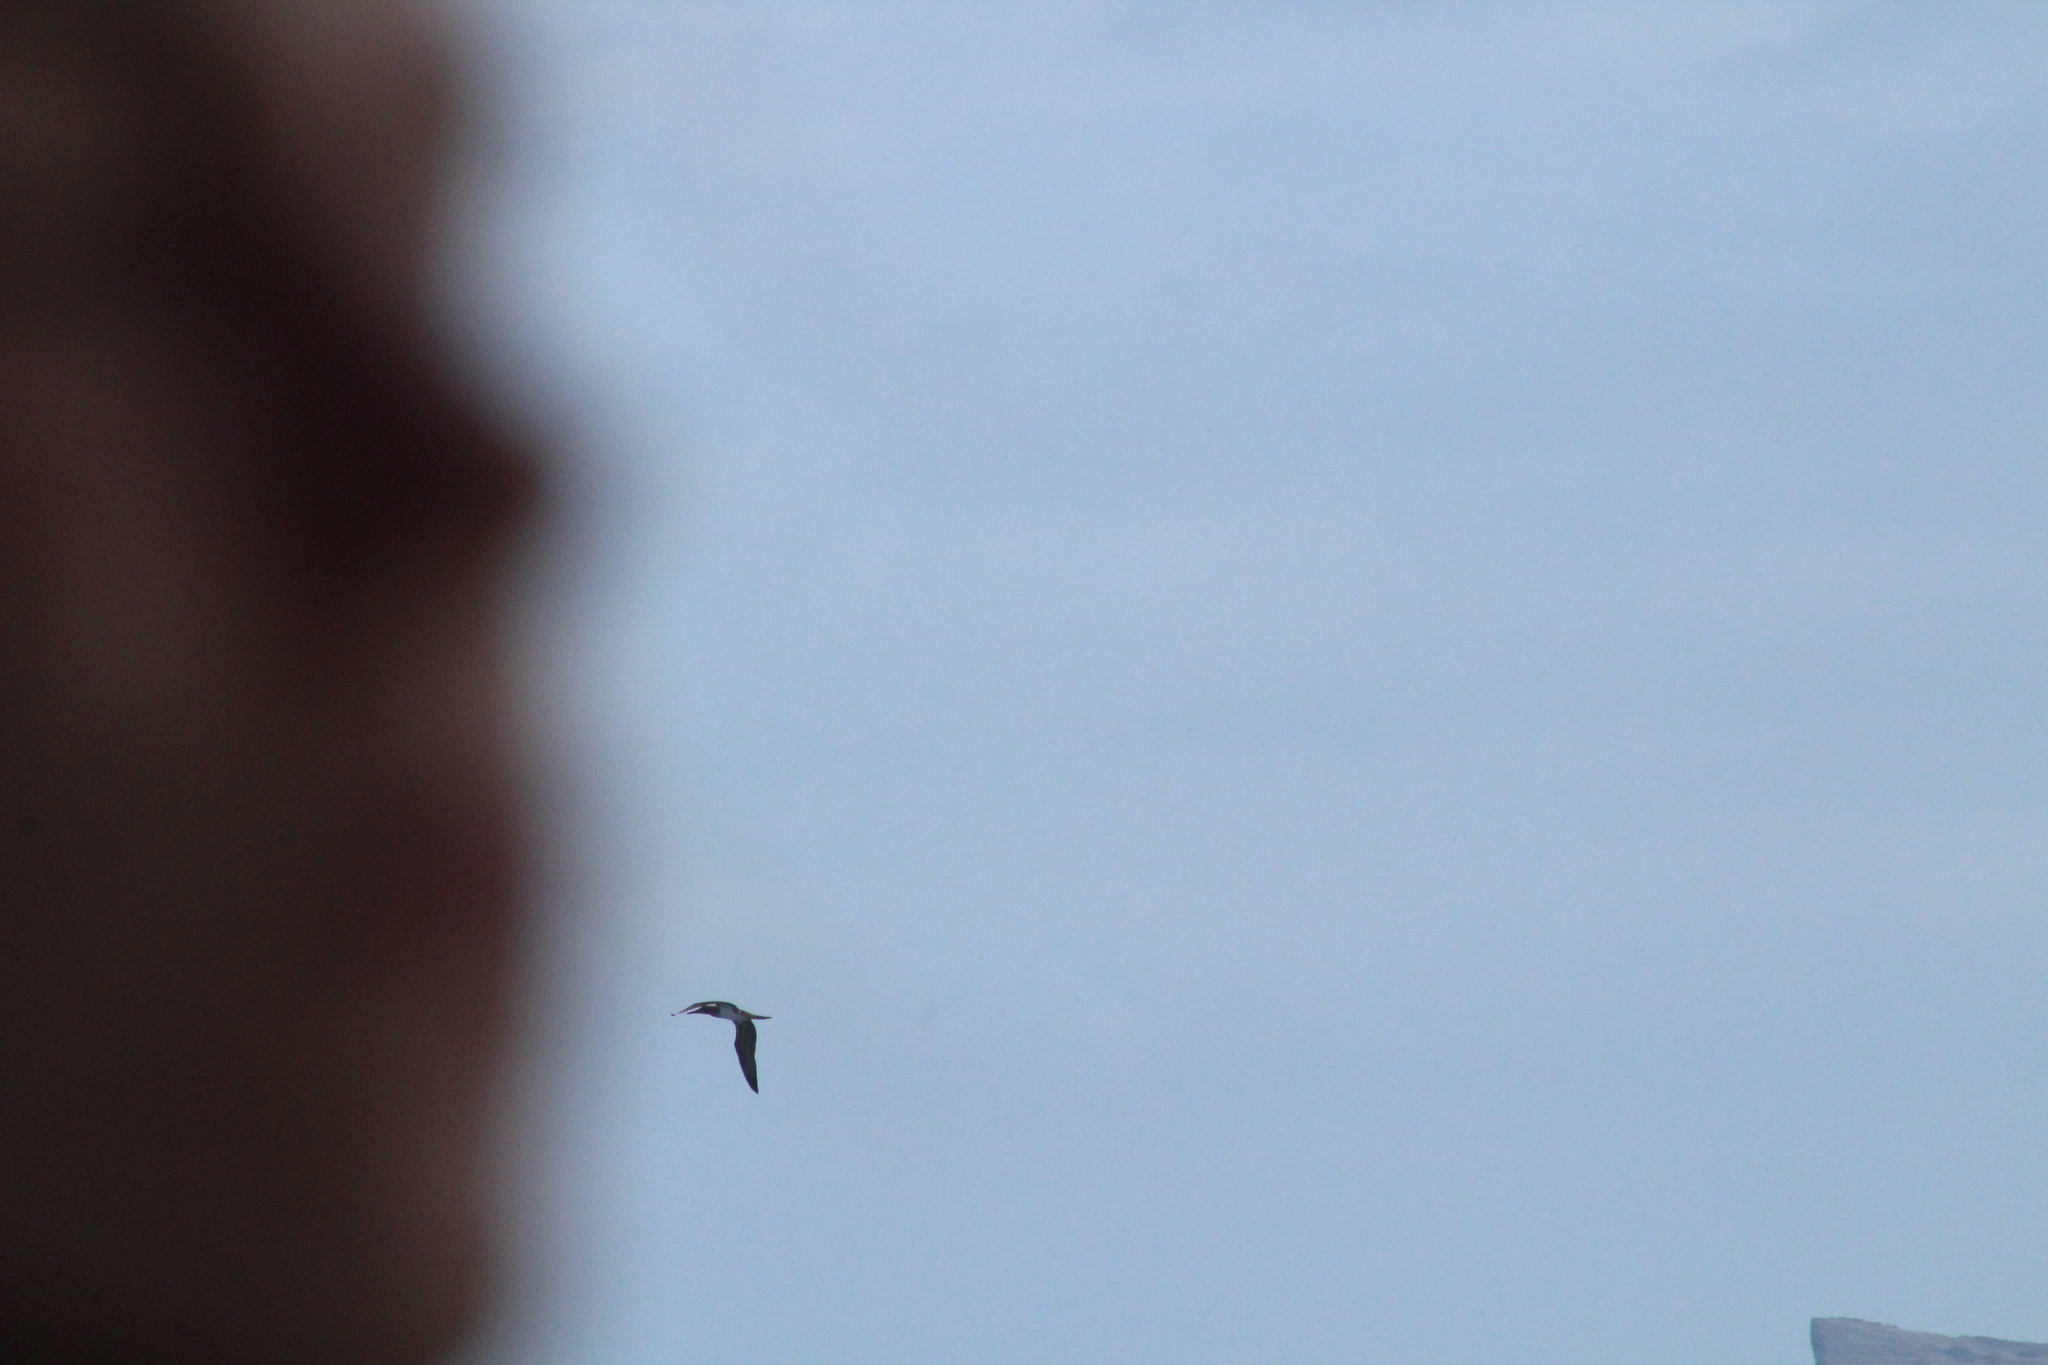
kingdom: Animalia
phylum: Chordata
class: Aves
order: Suliformes
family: Sulidae
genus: Sula
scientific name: Sula nebouxii
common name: Blue-footed booby
